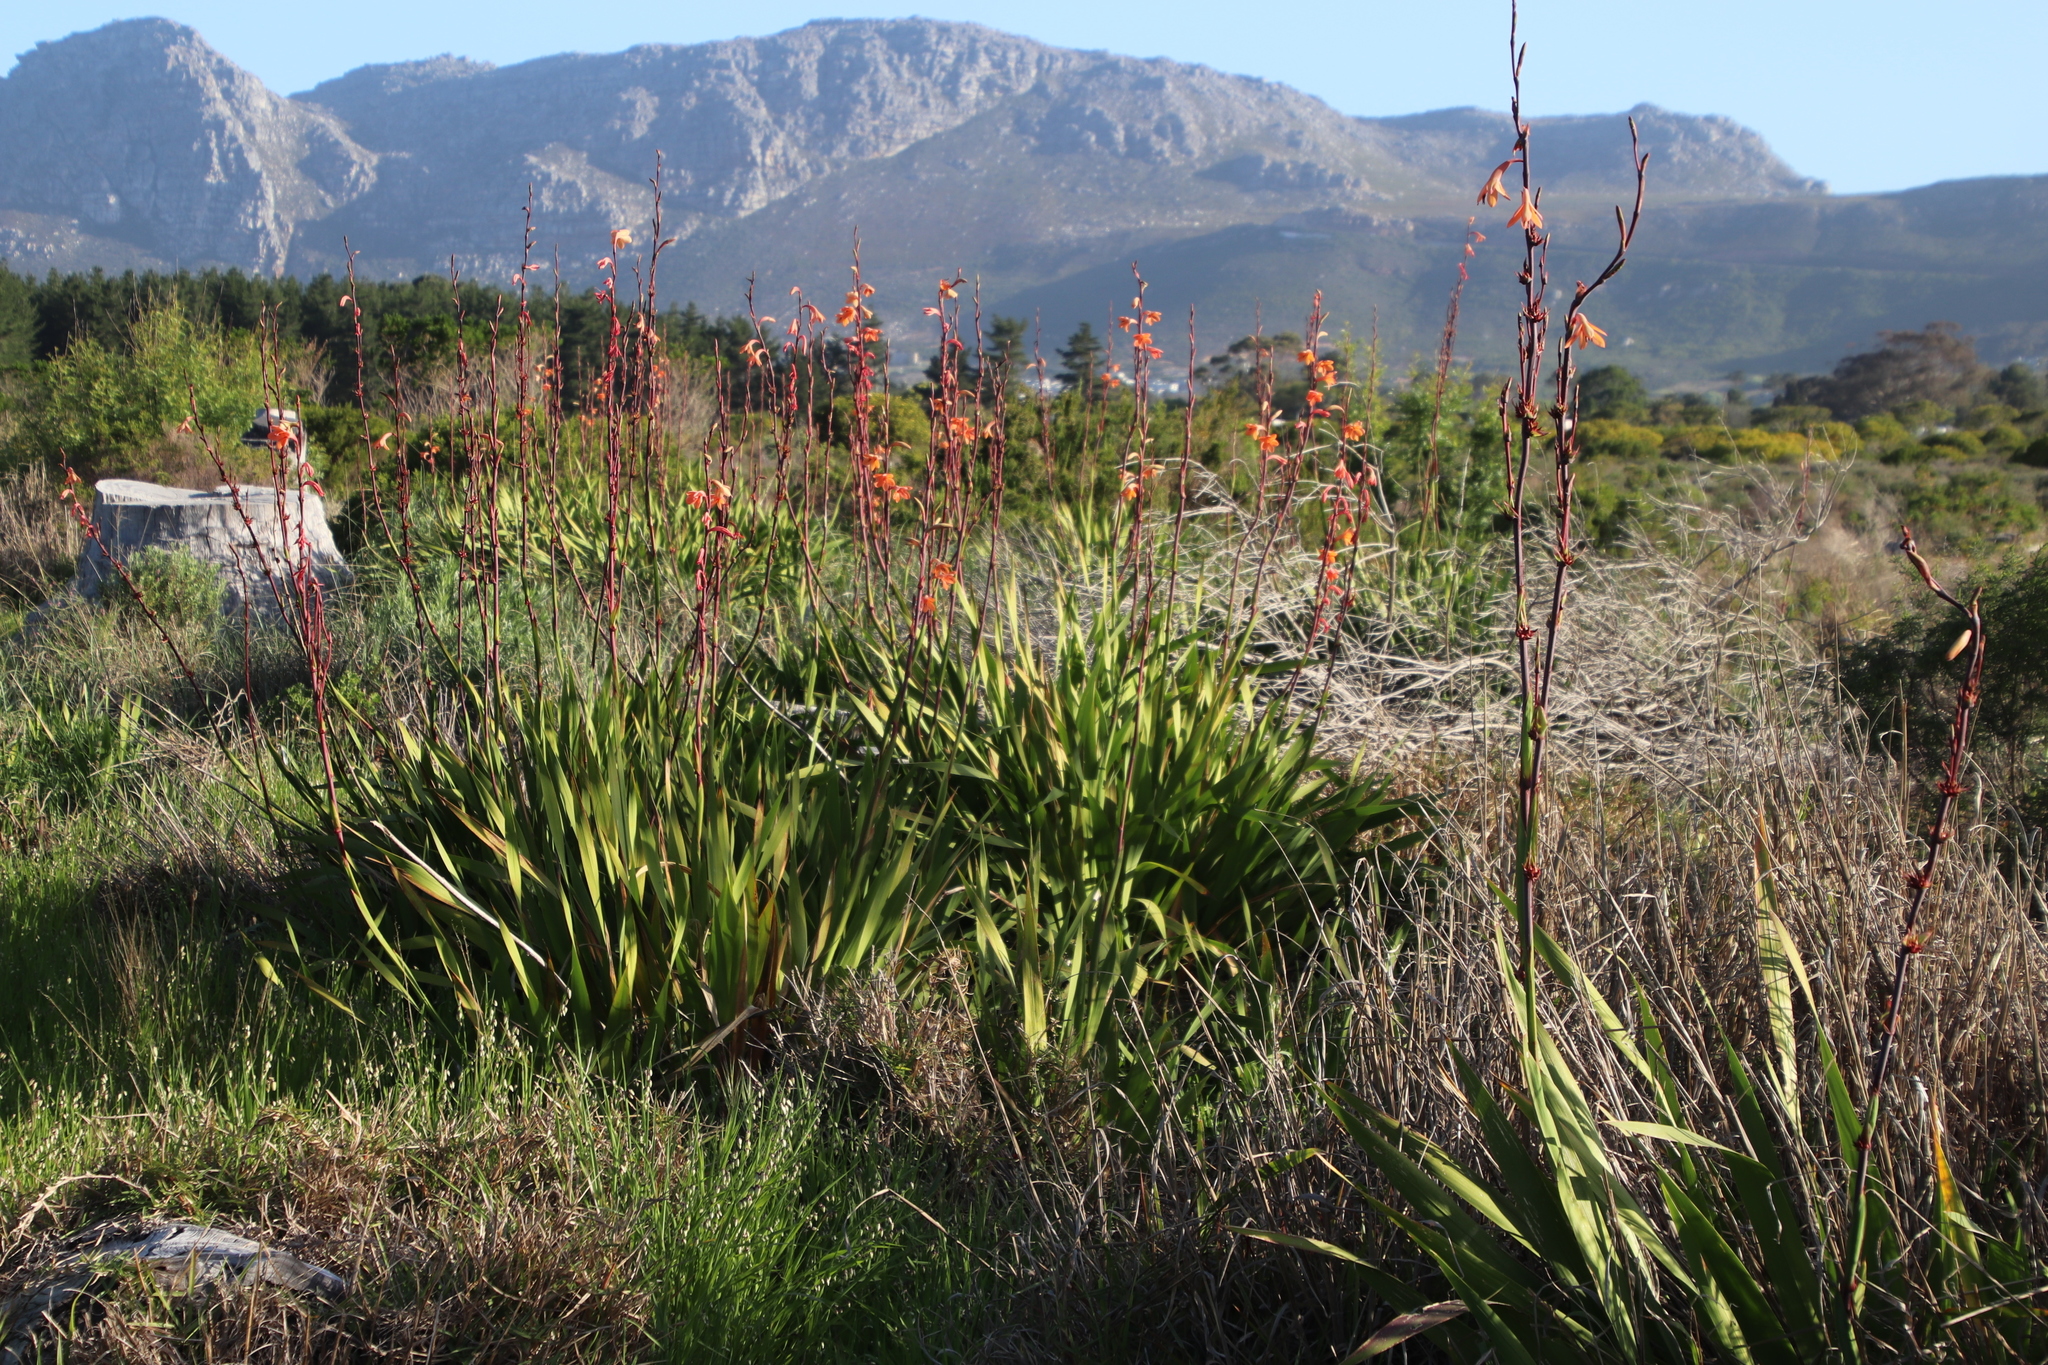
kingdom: Plantae
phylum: Tracheophyta
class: Liliopsida
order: Asparagales
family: Iridaceae
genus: Watsonia
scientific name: Watsonia meriana
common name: Bulbil bugle-lily
